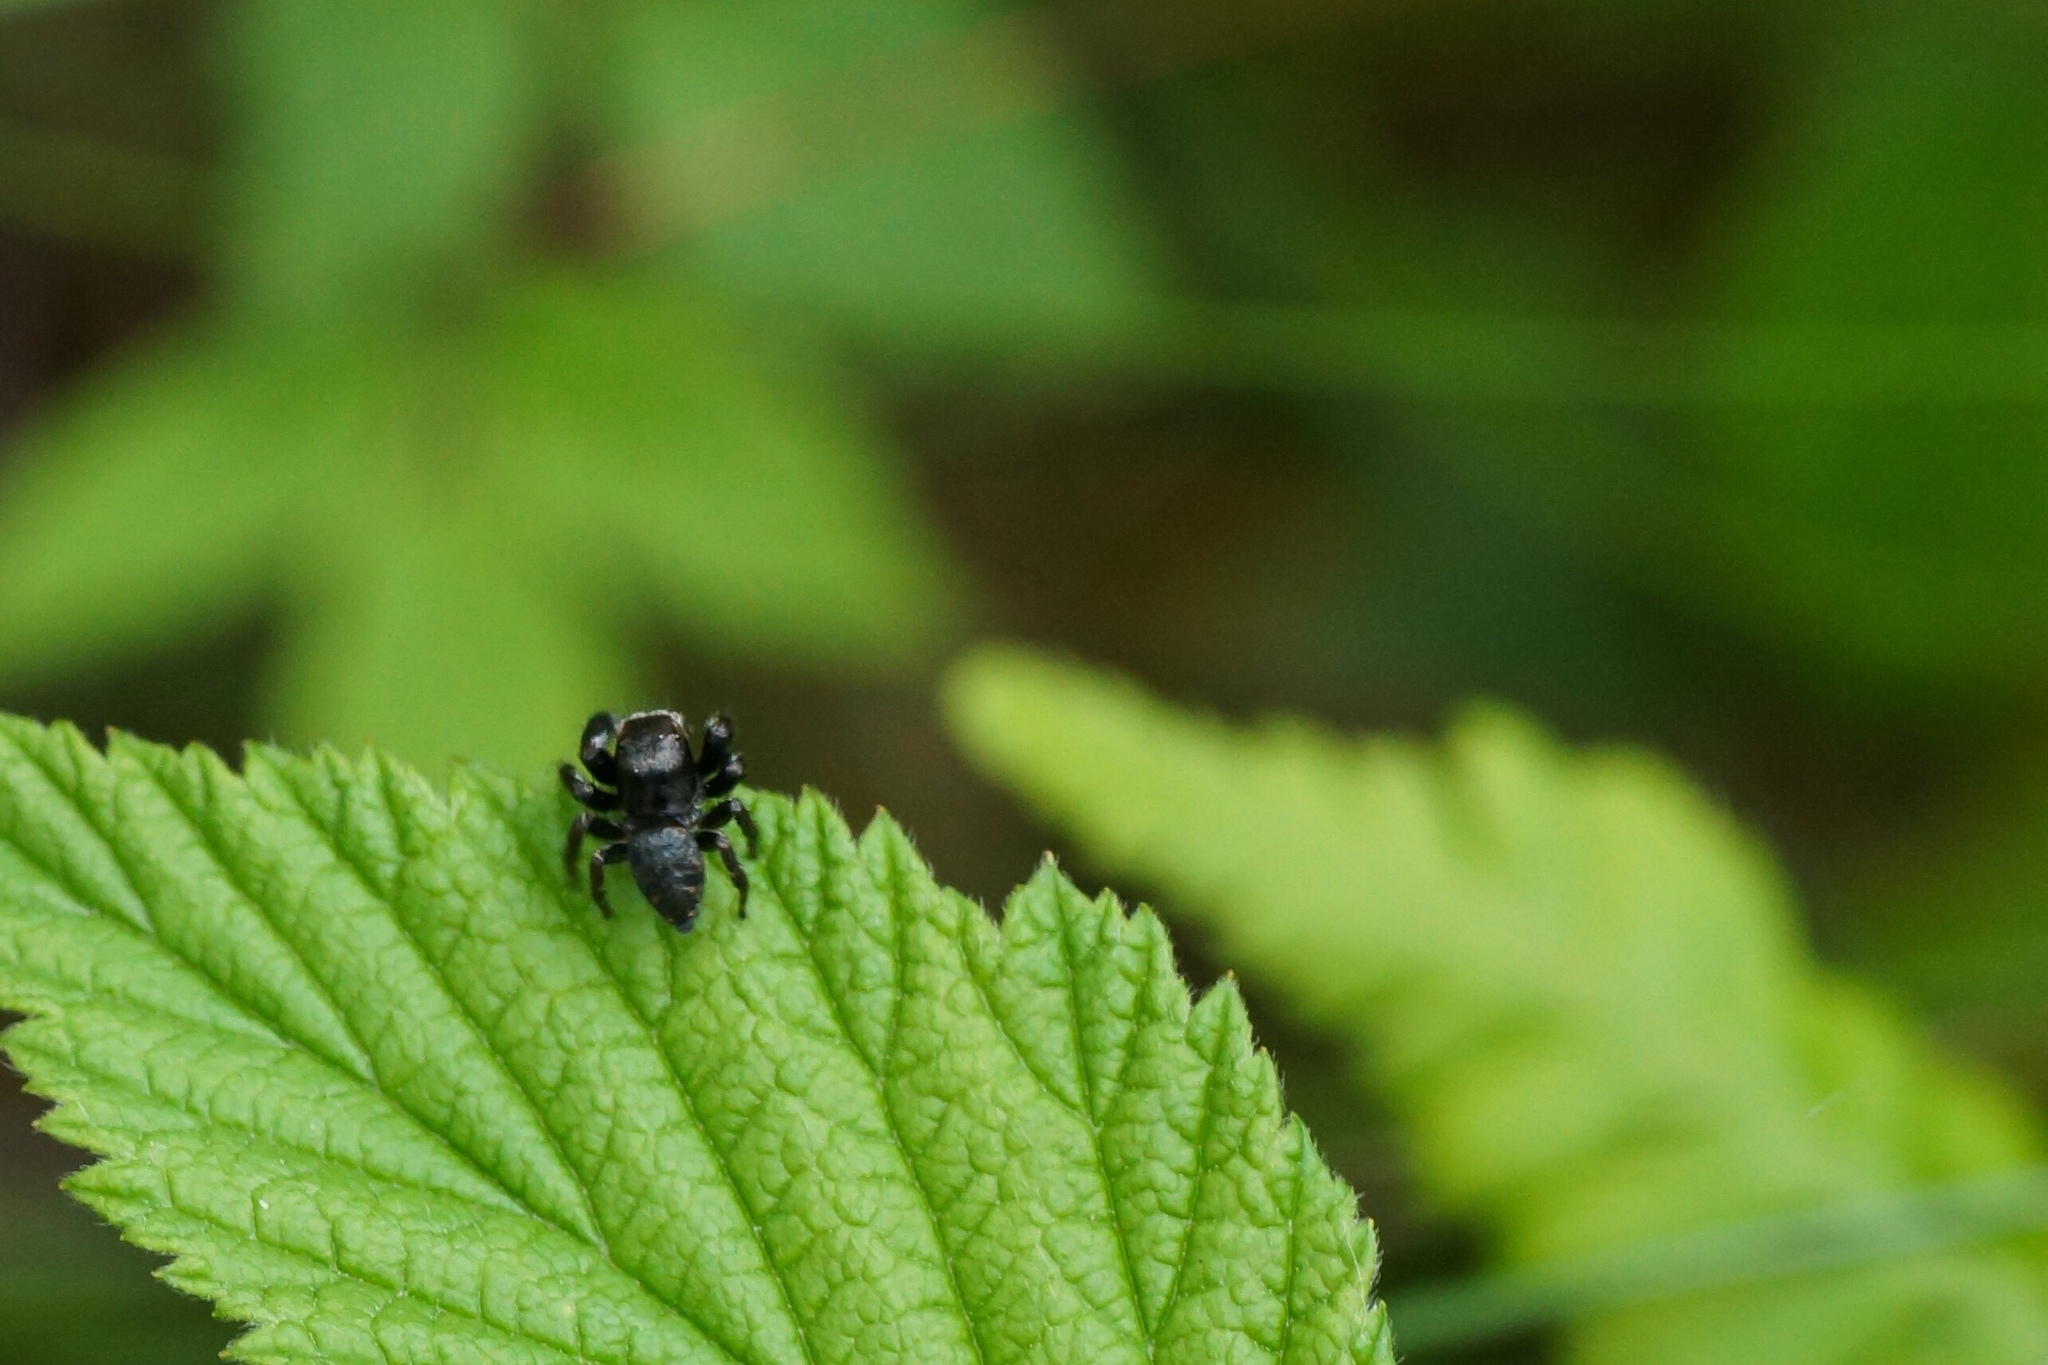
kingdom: Animalia
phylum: Arthropoda
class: Arachnida
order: Araneae
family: Salticidae
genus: Evarcha
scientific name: Evarcha arcuata
